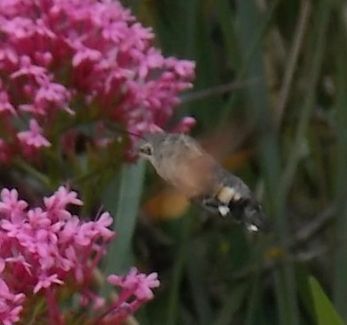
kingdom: Animalia
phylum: Arthropoda
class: Insecta
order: Lepidoptera
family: Sphingidae
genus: Macroglossum
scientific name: Macroglossum stellatarum
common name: Humming-bird hawk-moth
